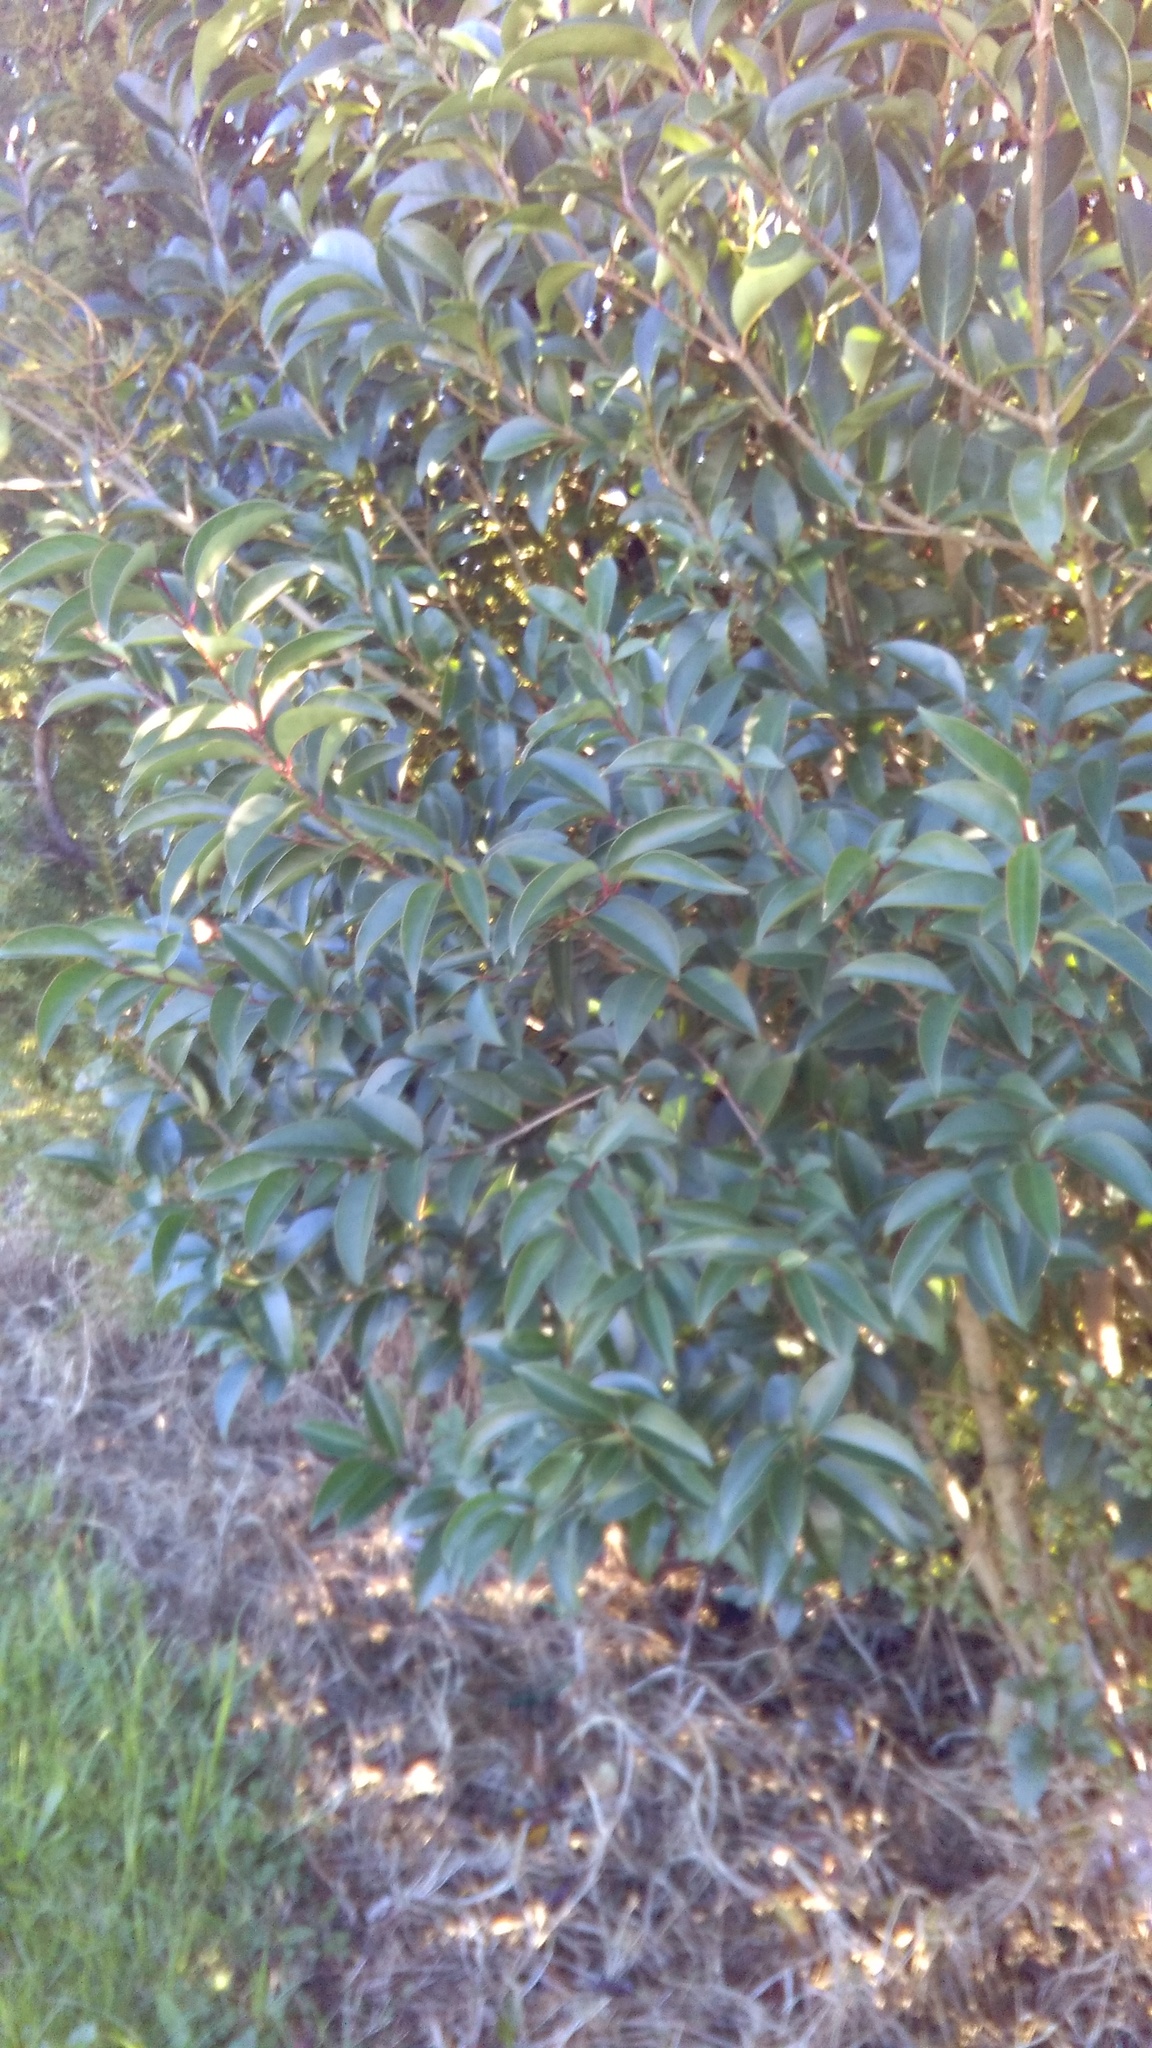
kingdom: Plantae
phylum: Tracheophyta
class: Magnoliopsida
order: Lamiales
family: Oleaceae
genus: Ligustrum
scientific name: Ligustrum lucidum
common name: Glossy privet
